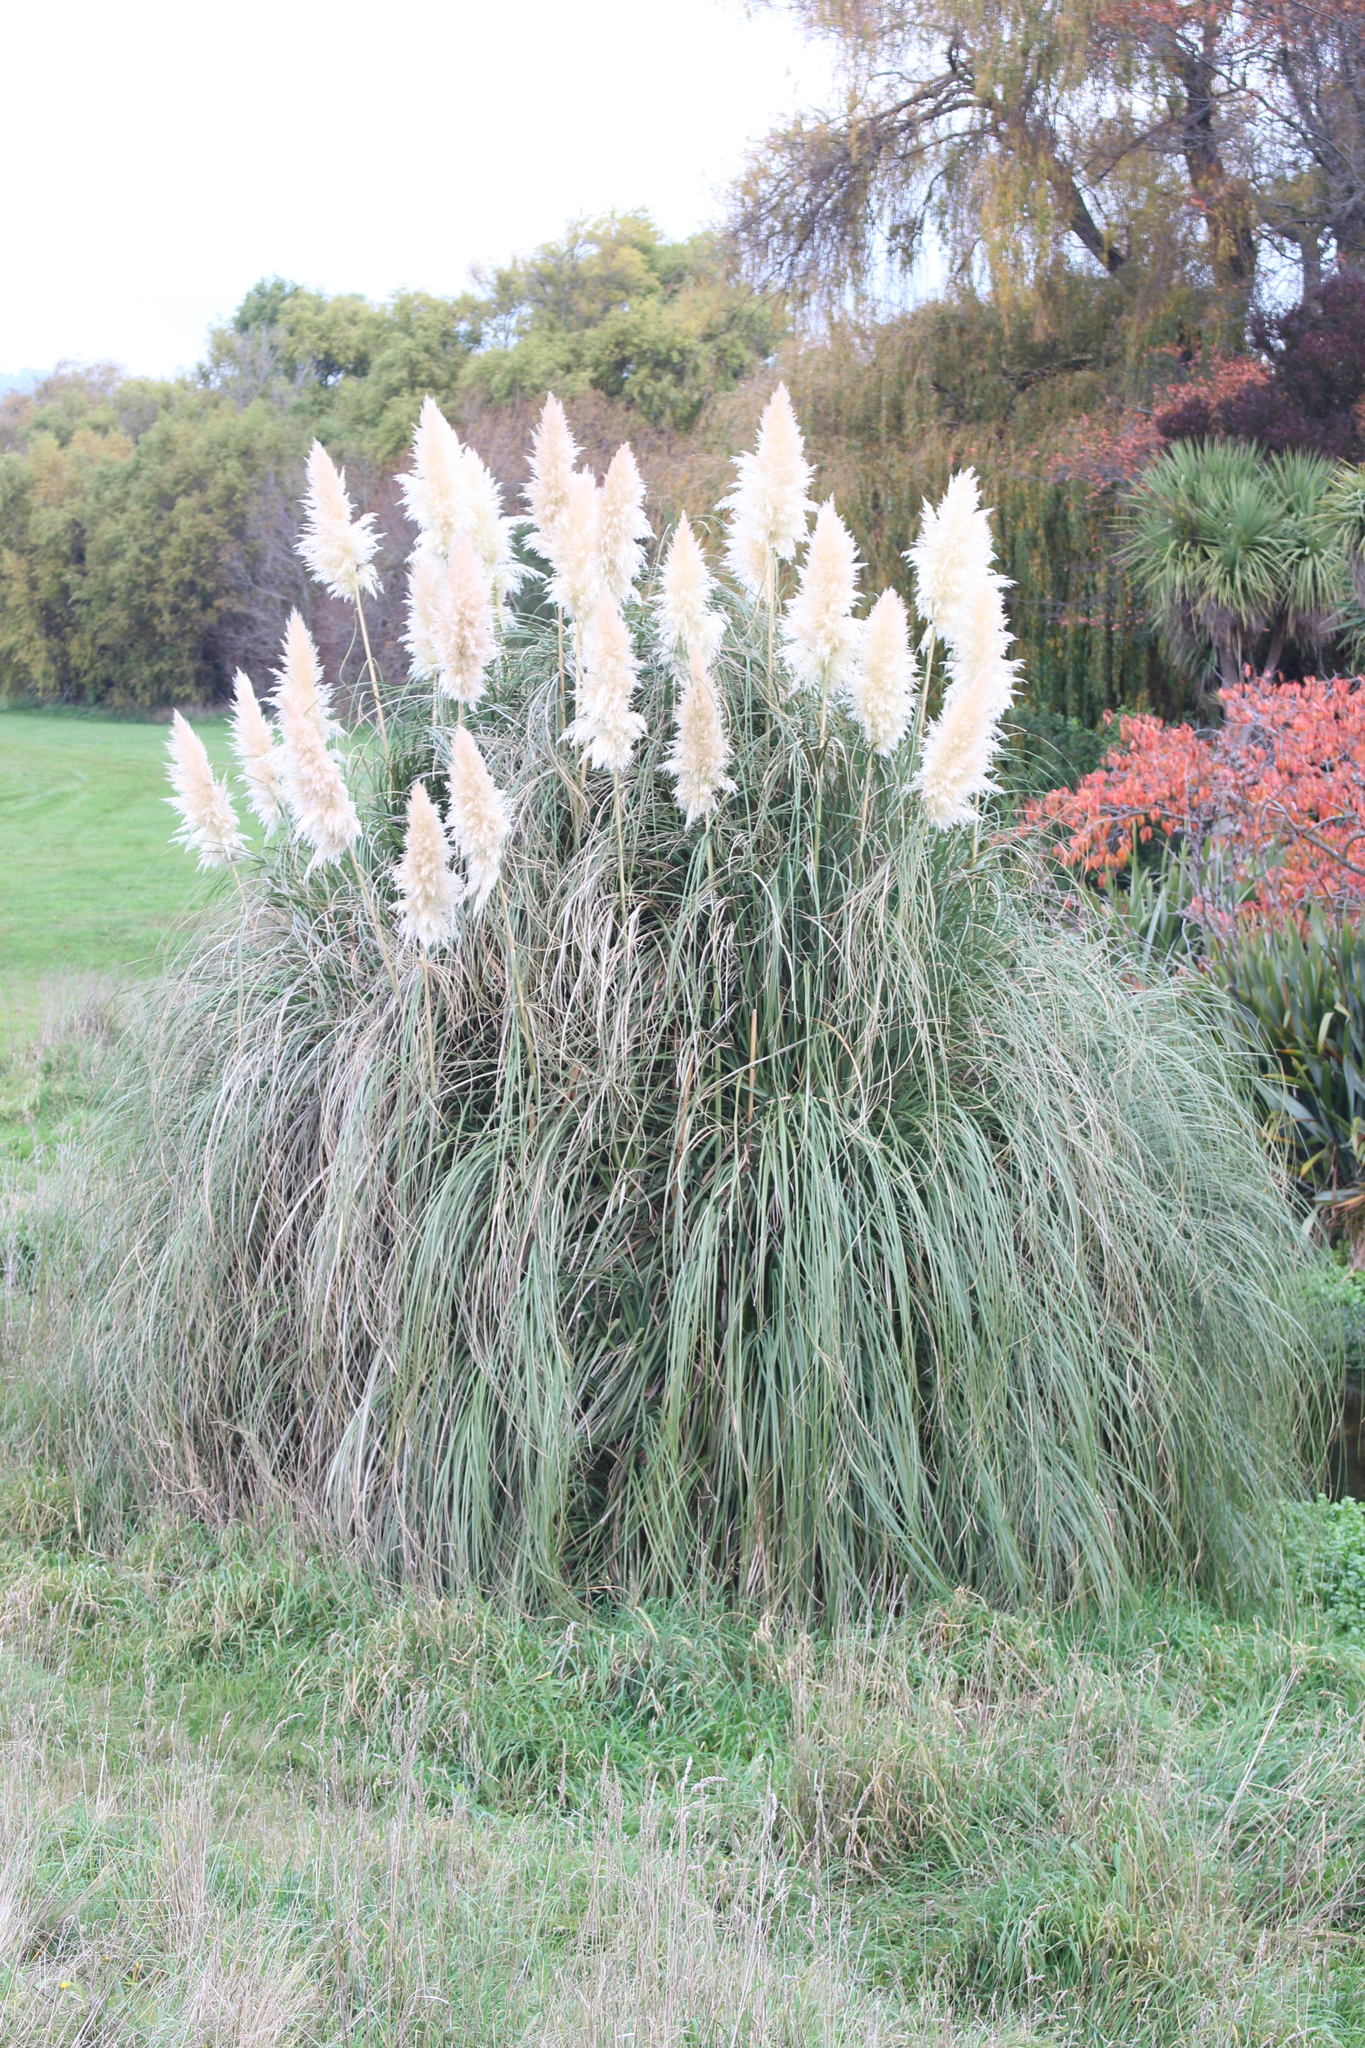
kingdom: Plantae
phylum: Tracheophyta
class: Liliopsida
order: Poales
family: Poaceae
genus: Cortaderia
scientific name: Cortaderia selloana
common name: Uruguayan pampas grass
